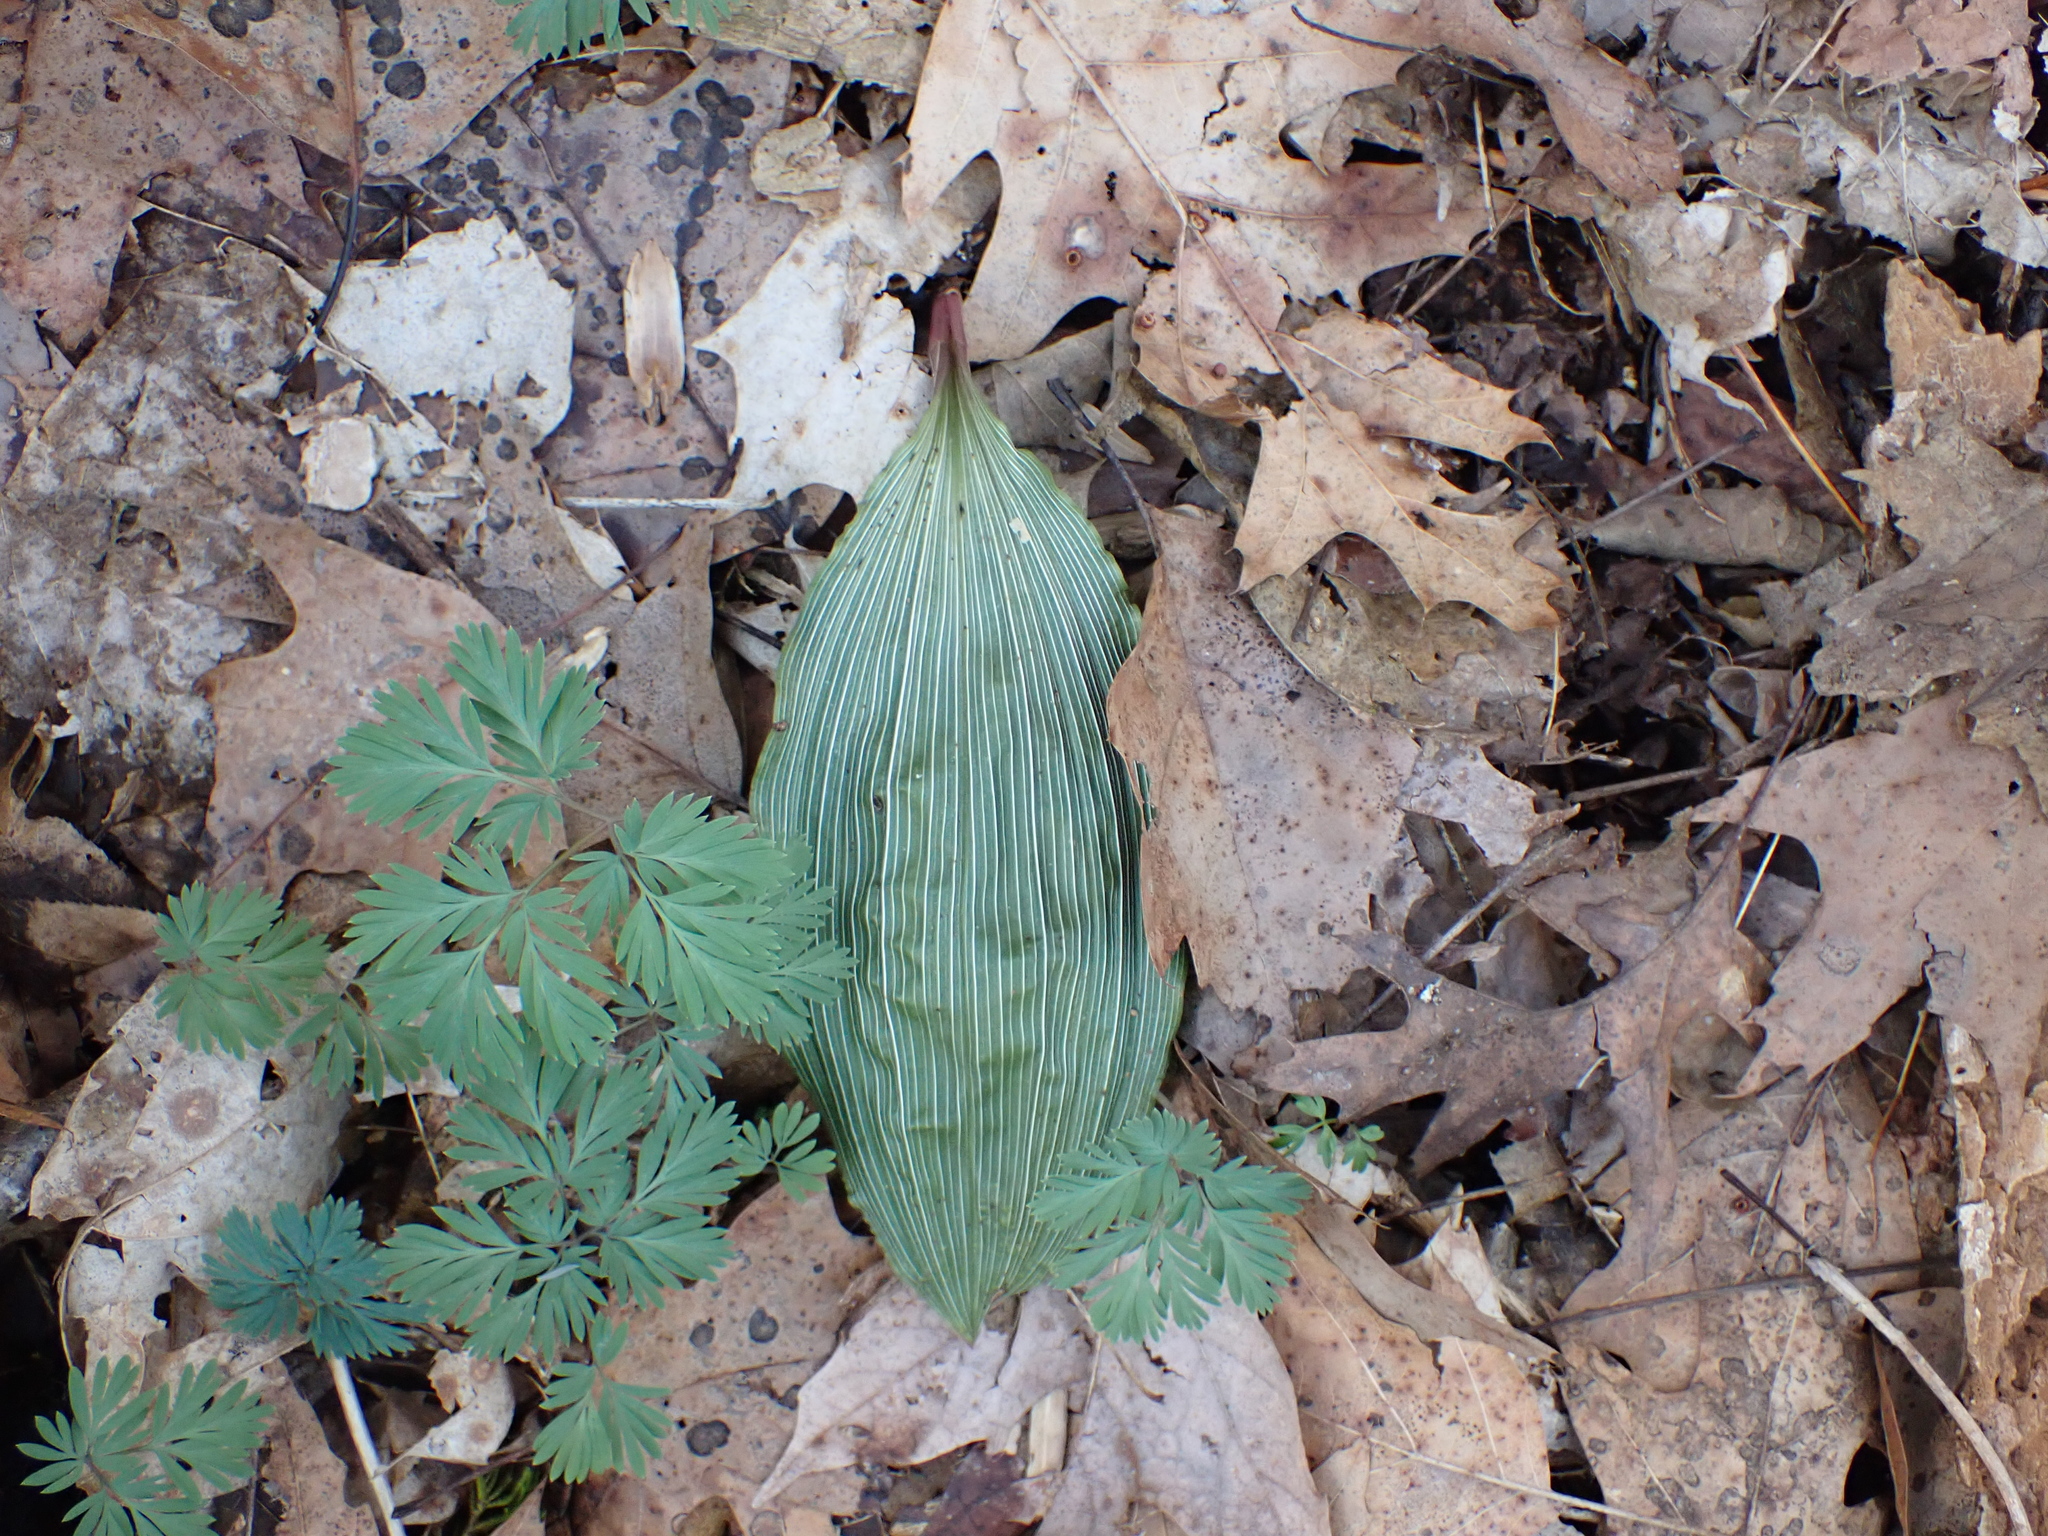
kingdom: Plantae
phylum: Tracheophyta
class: Liliopsida
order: Asparagales
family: Orchidaceae
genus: Aplectrum
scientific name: Aplectrum hyemale
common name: Adam-and-eve
